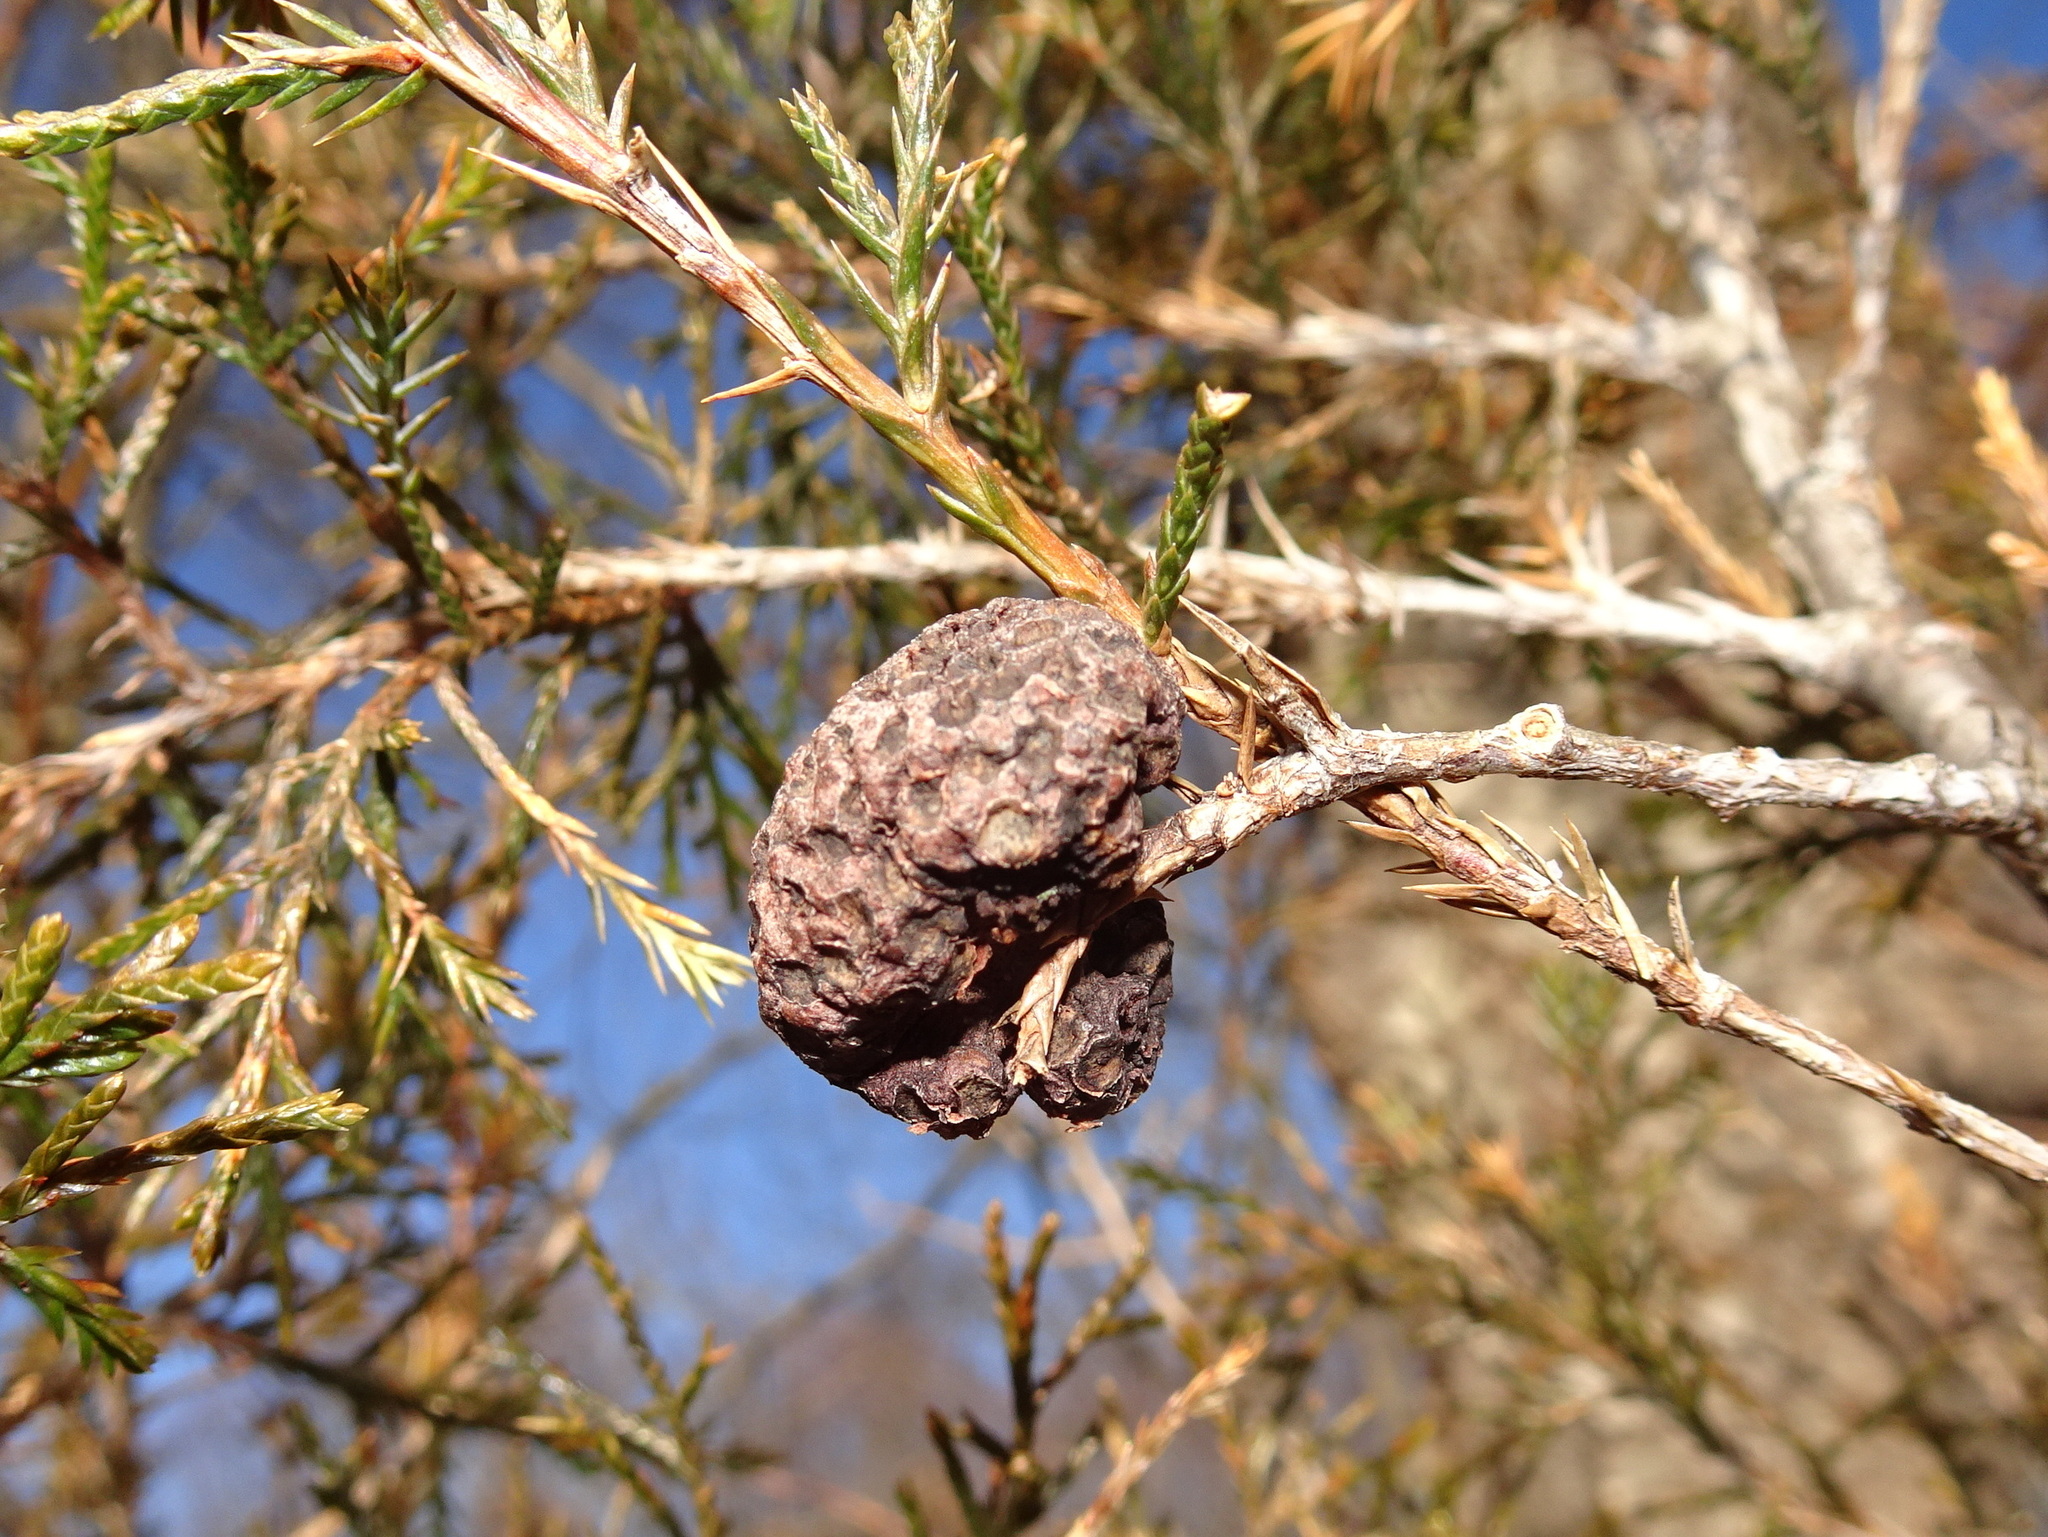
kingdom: Fungi
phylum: Basidiomycota
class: Pucciniomycetes
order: Pucciniales
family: Gymnosporangiaceae
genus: Gymnosporangium
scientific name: Gymnosporangium juniperi-virginianae
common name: Juniper-apple rust
